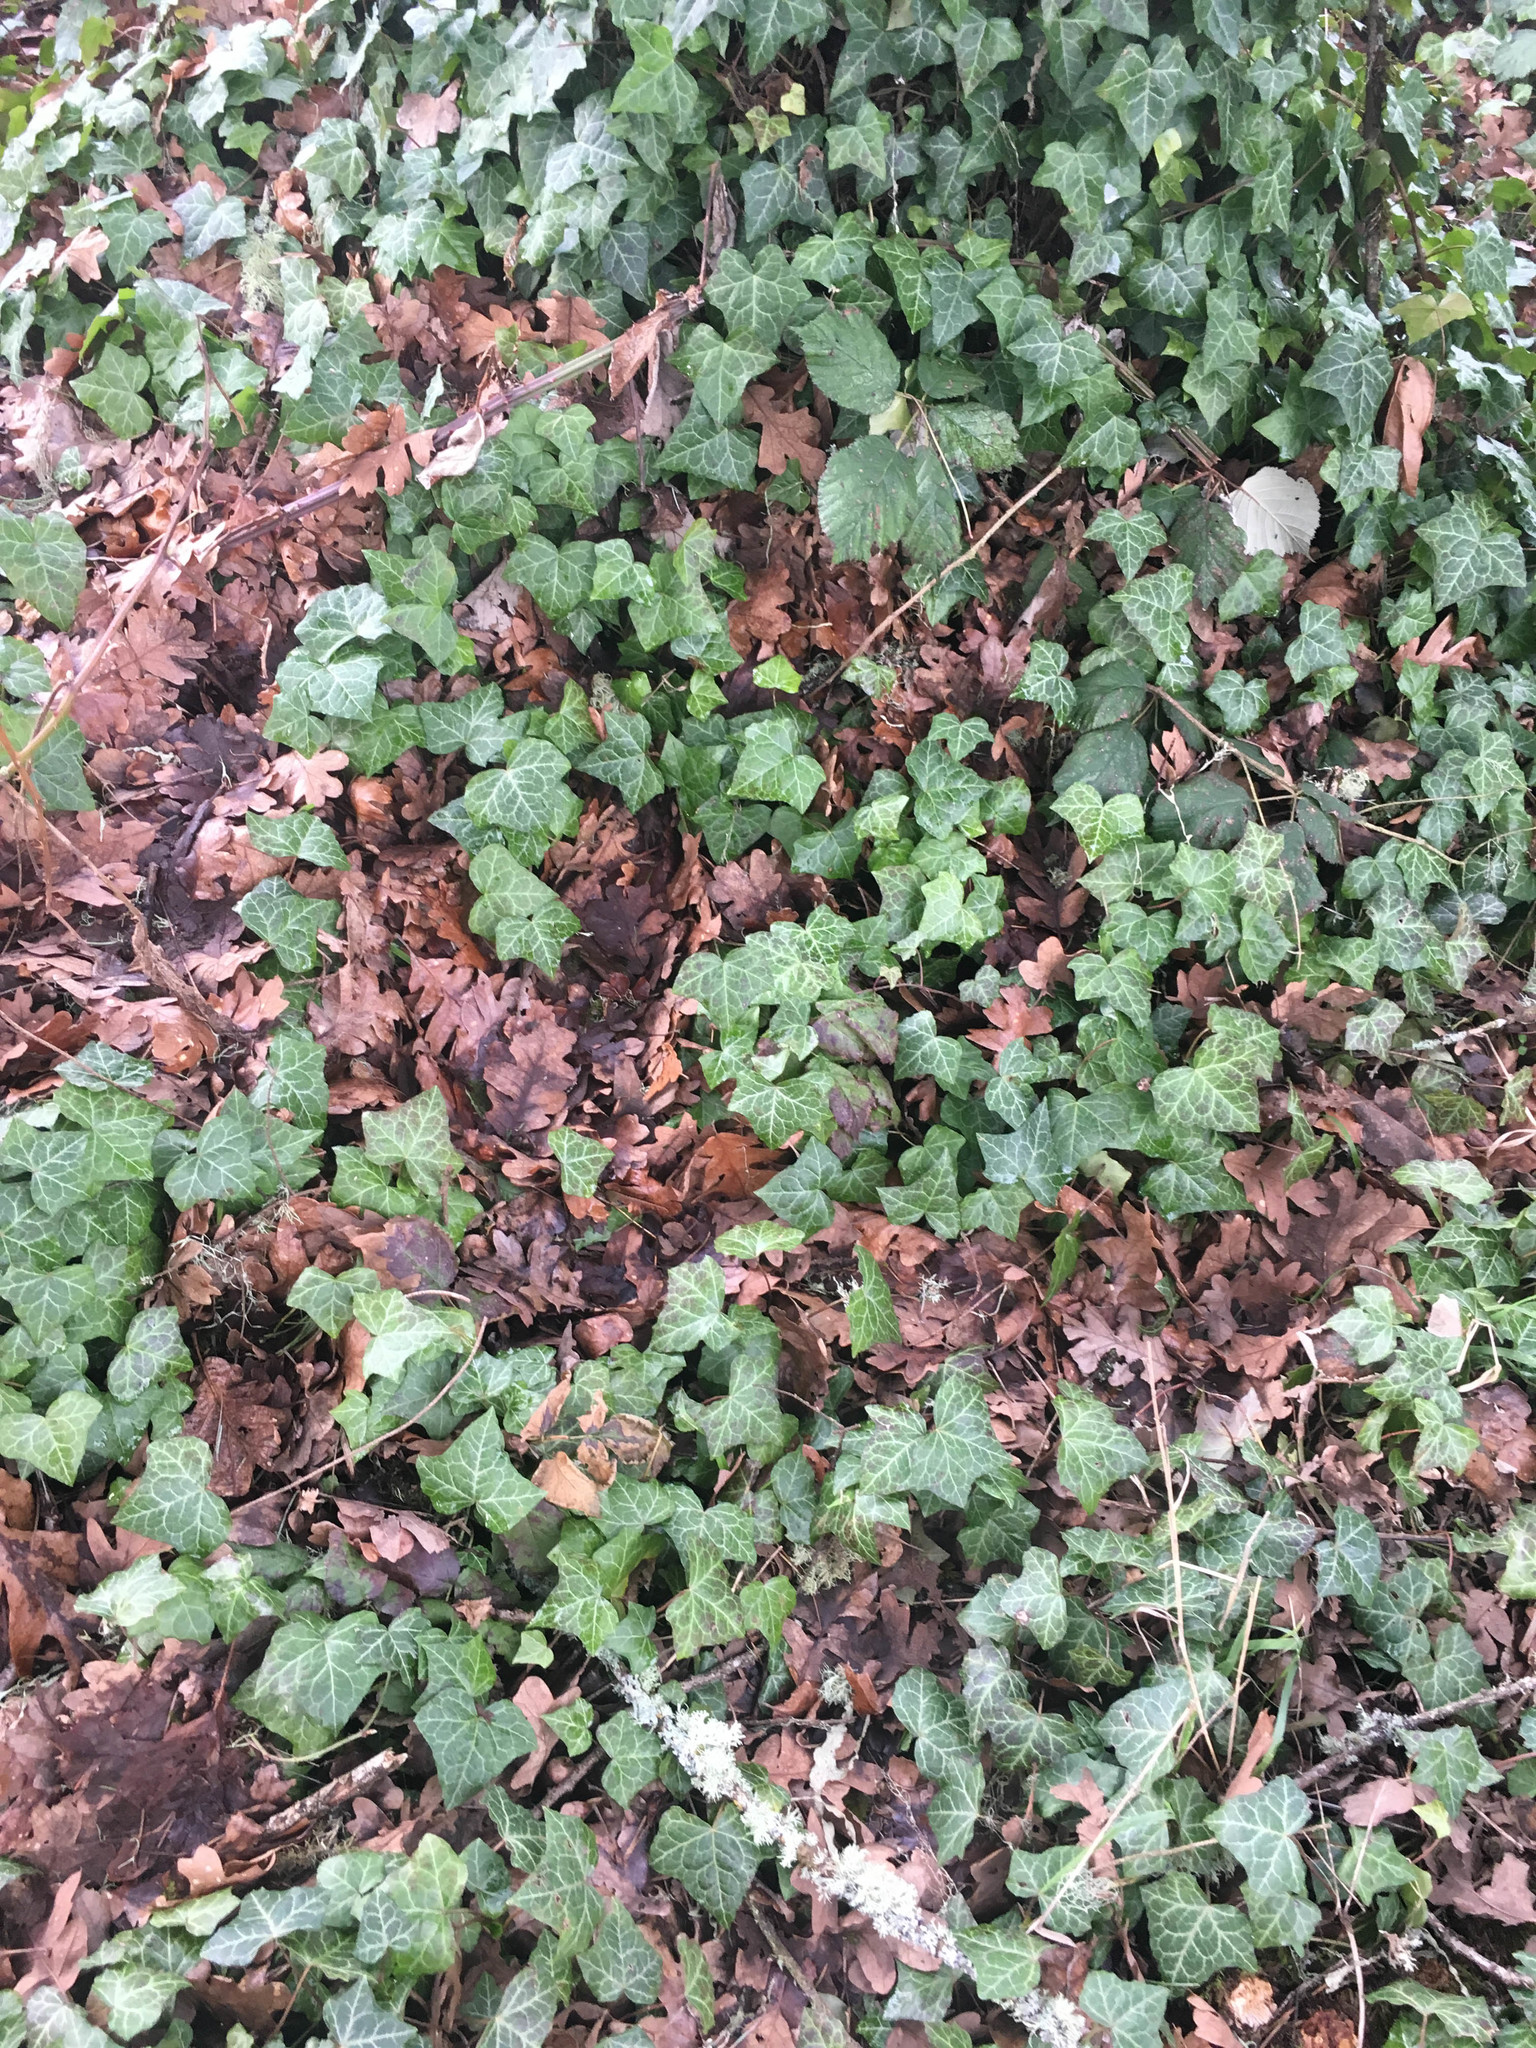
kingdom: Plantae
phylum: Tracheophyta
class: Magnoliopsida
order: Apiales
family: Araliaceae
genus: Hedera
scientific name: Hedera helix
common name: Ivy
